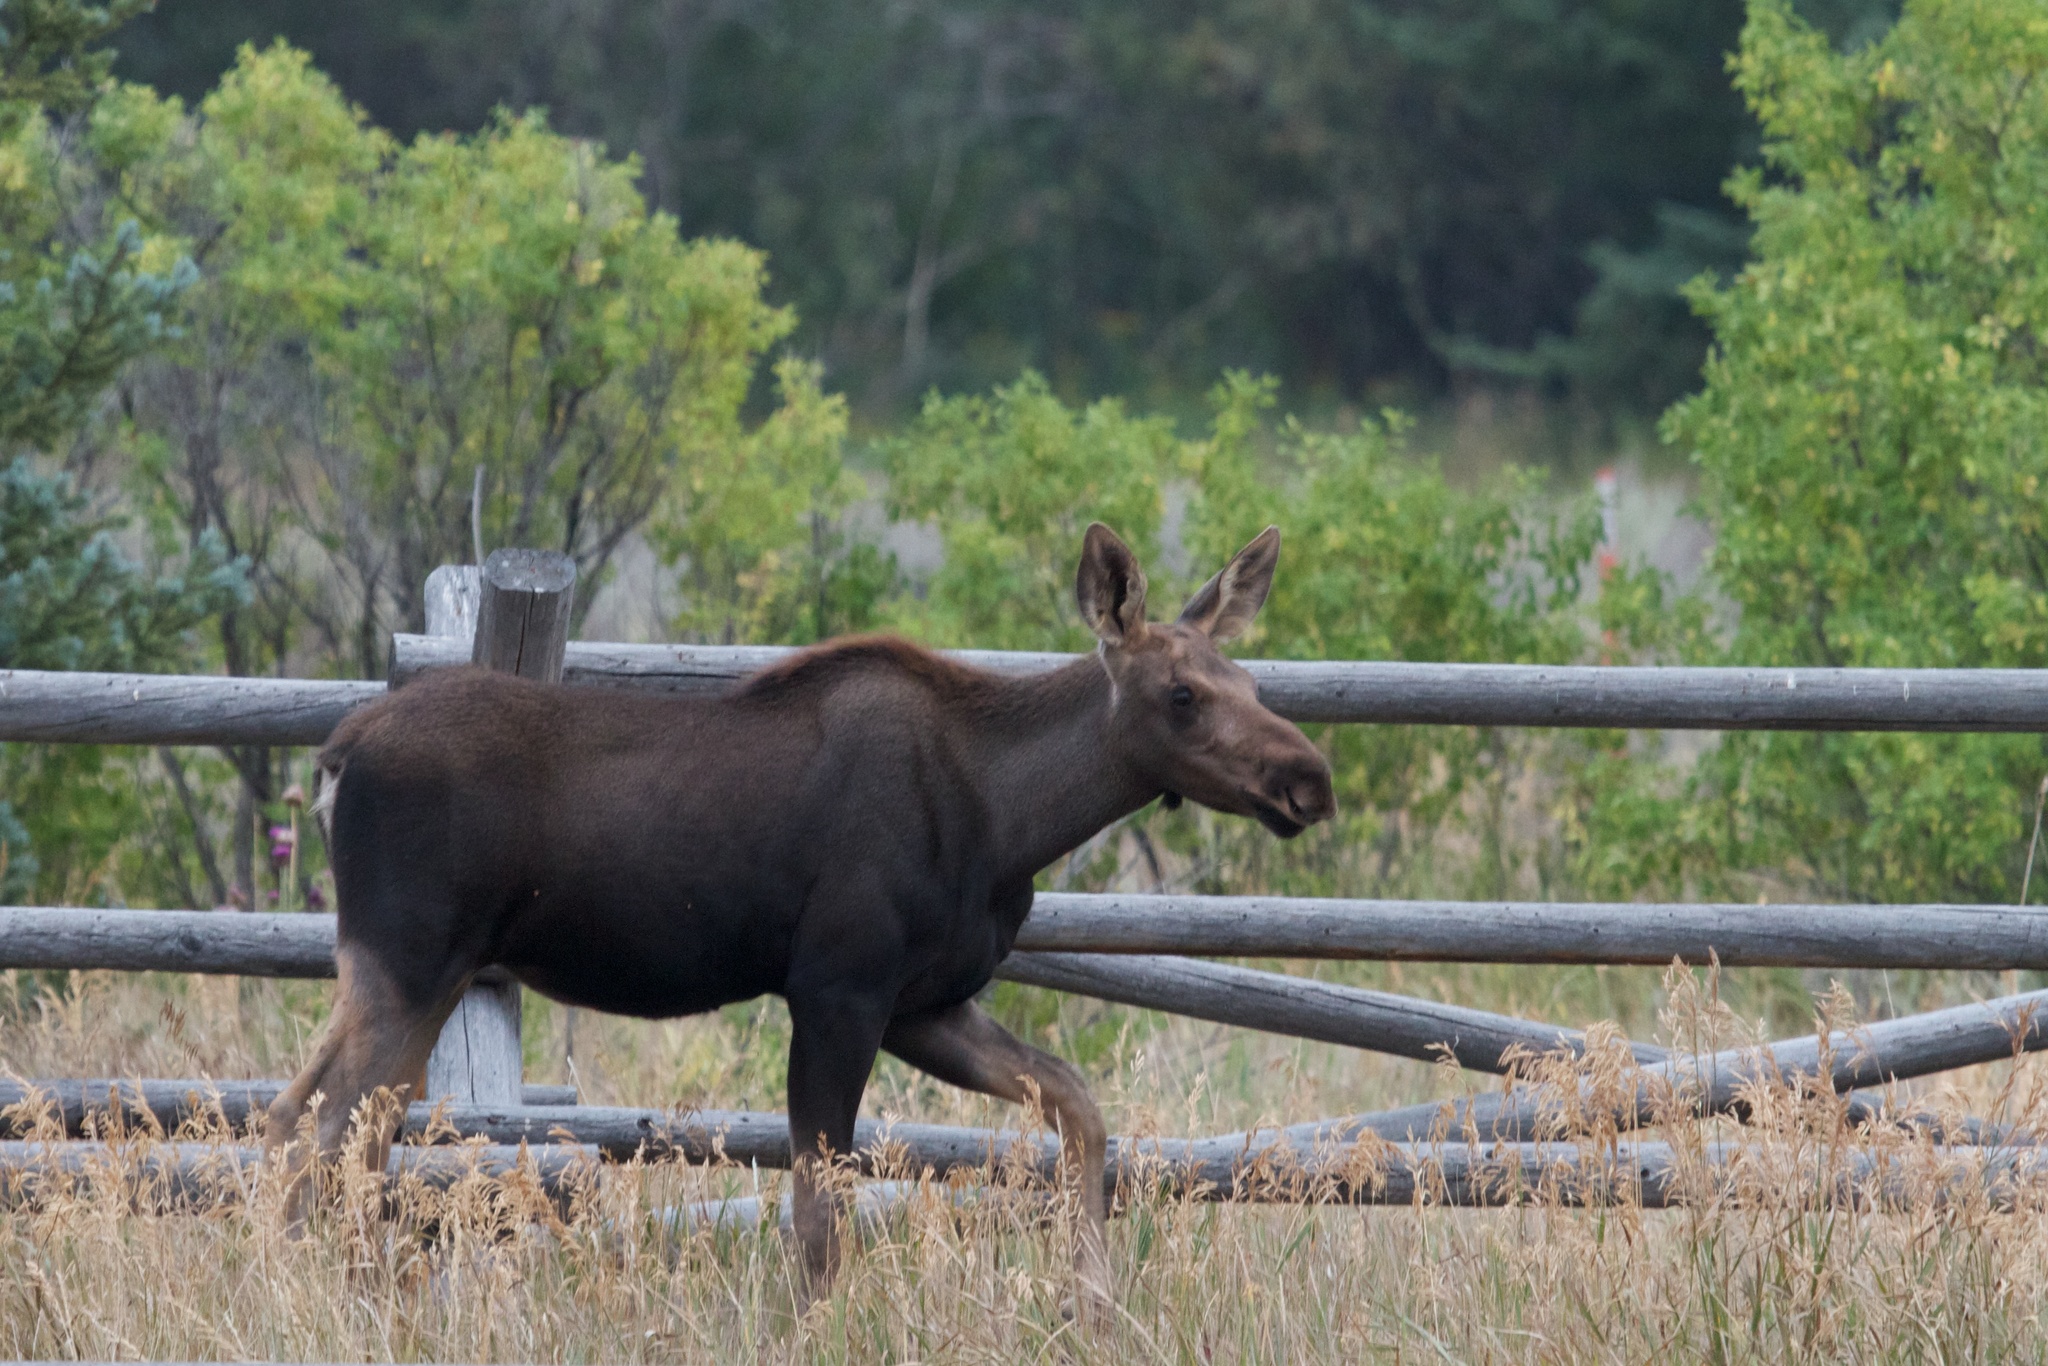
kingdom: Animalia
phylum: Chordata
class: Mammalia
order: Artiodactyla
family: Cervidae
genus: Alces
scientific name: Alces alces
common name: Moose
